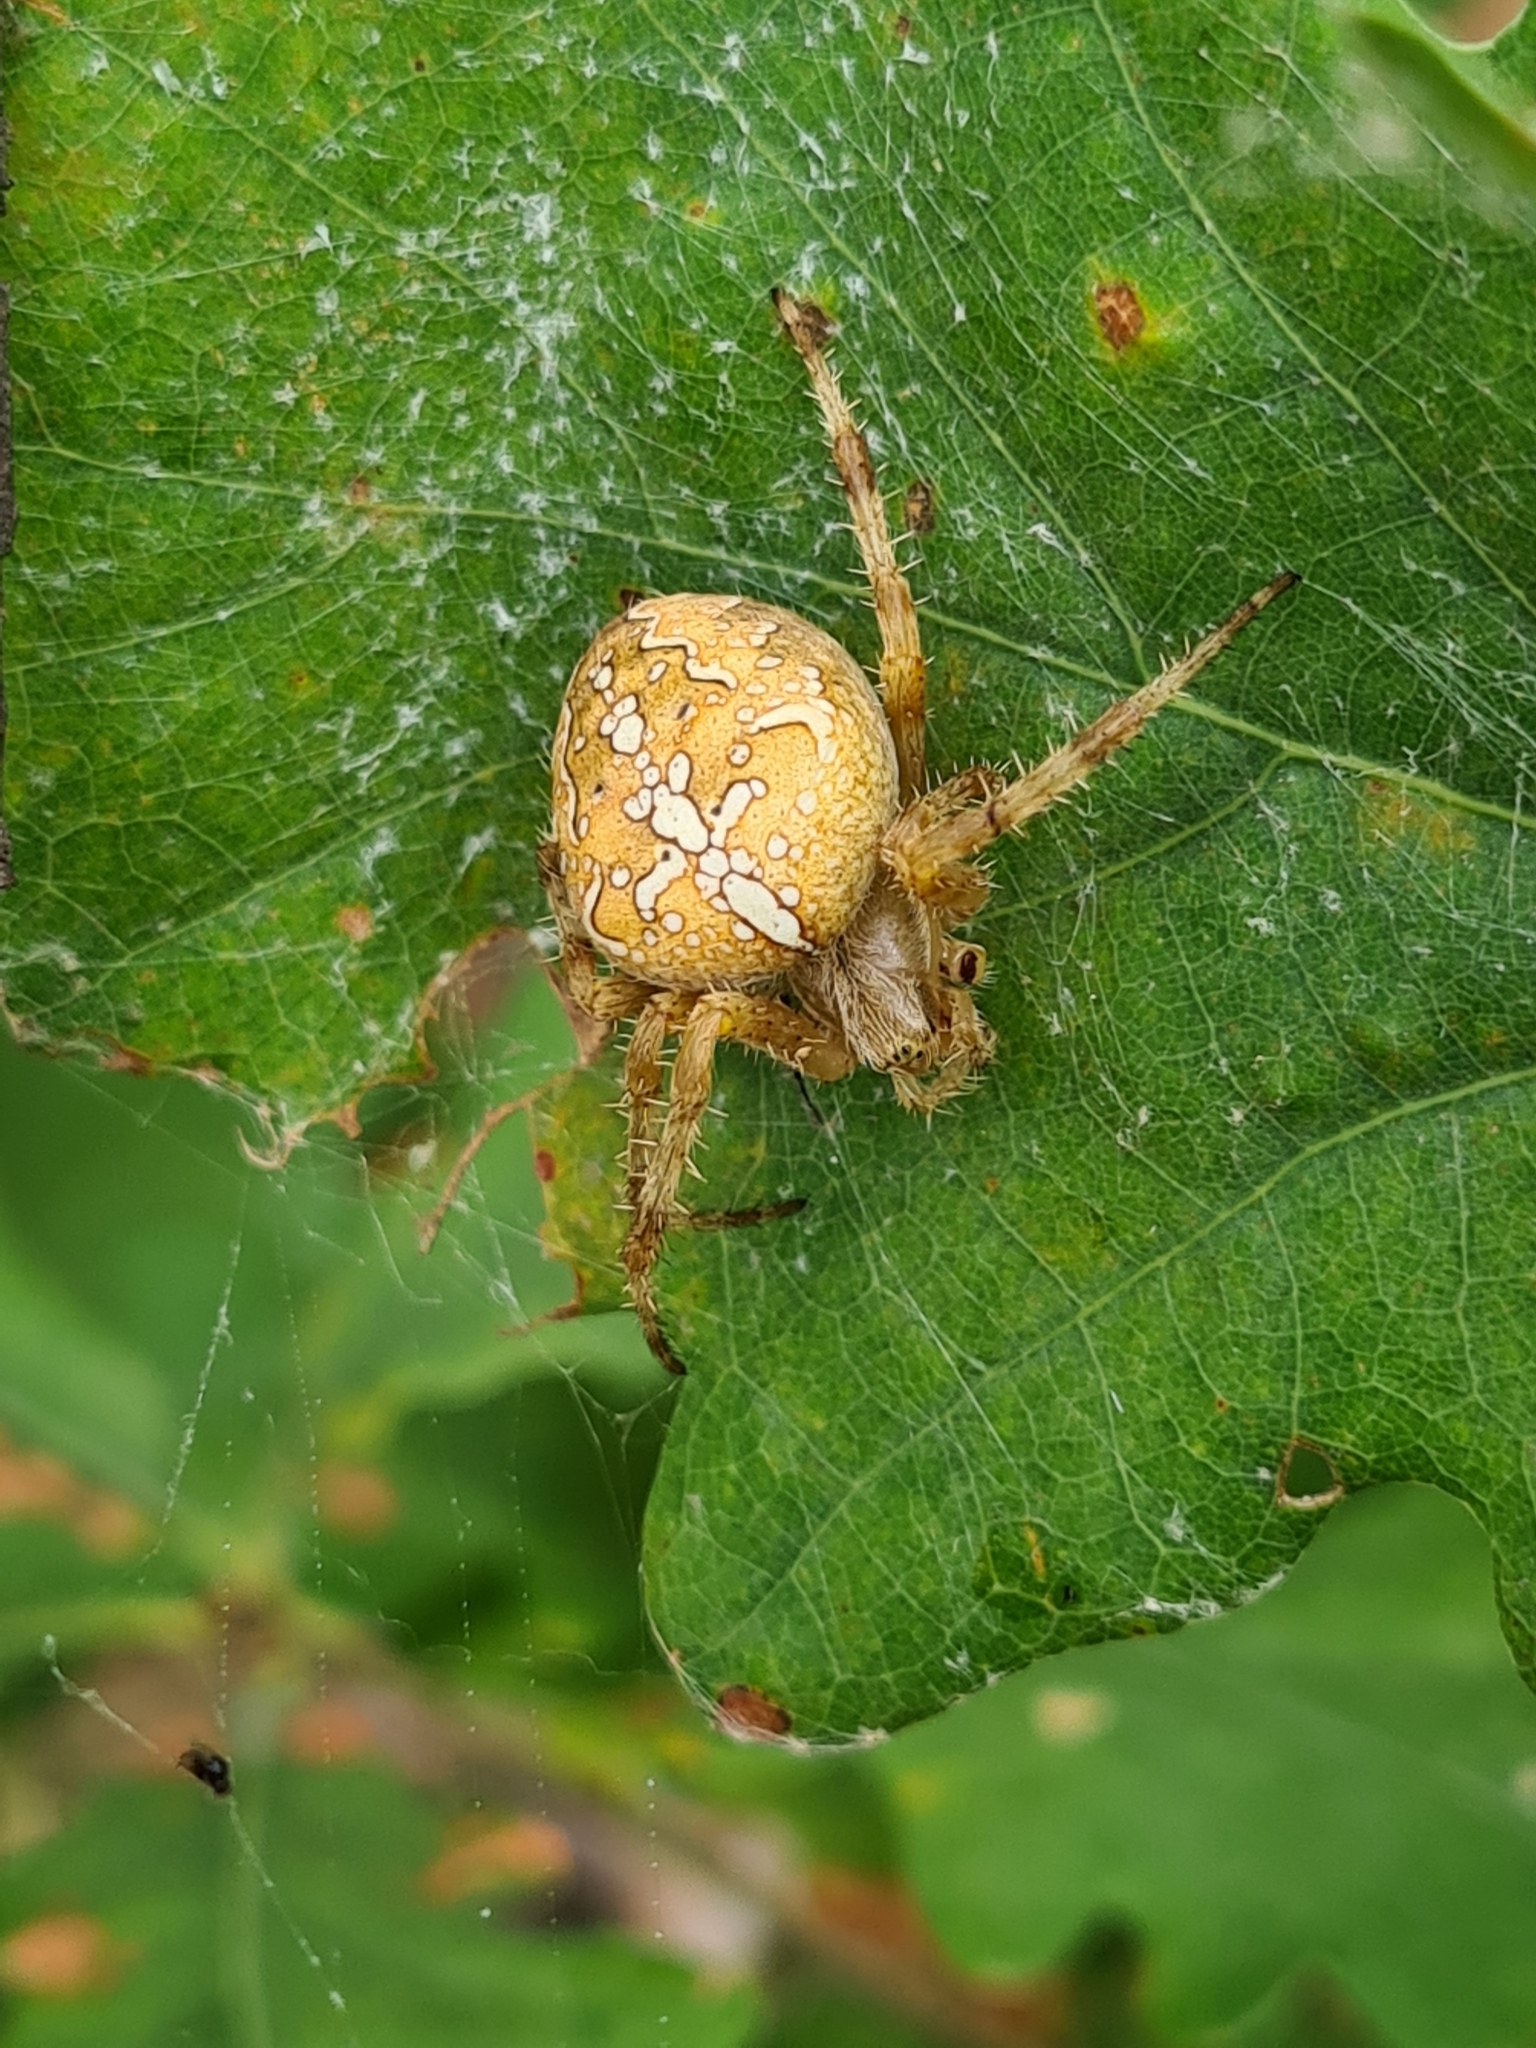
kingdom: Animalia
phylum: Arthropoda
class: Arachnida
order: Araneae
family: Araneidae
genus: Araneus
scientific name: Araneus diadematus
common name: Cross orbweaver
